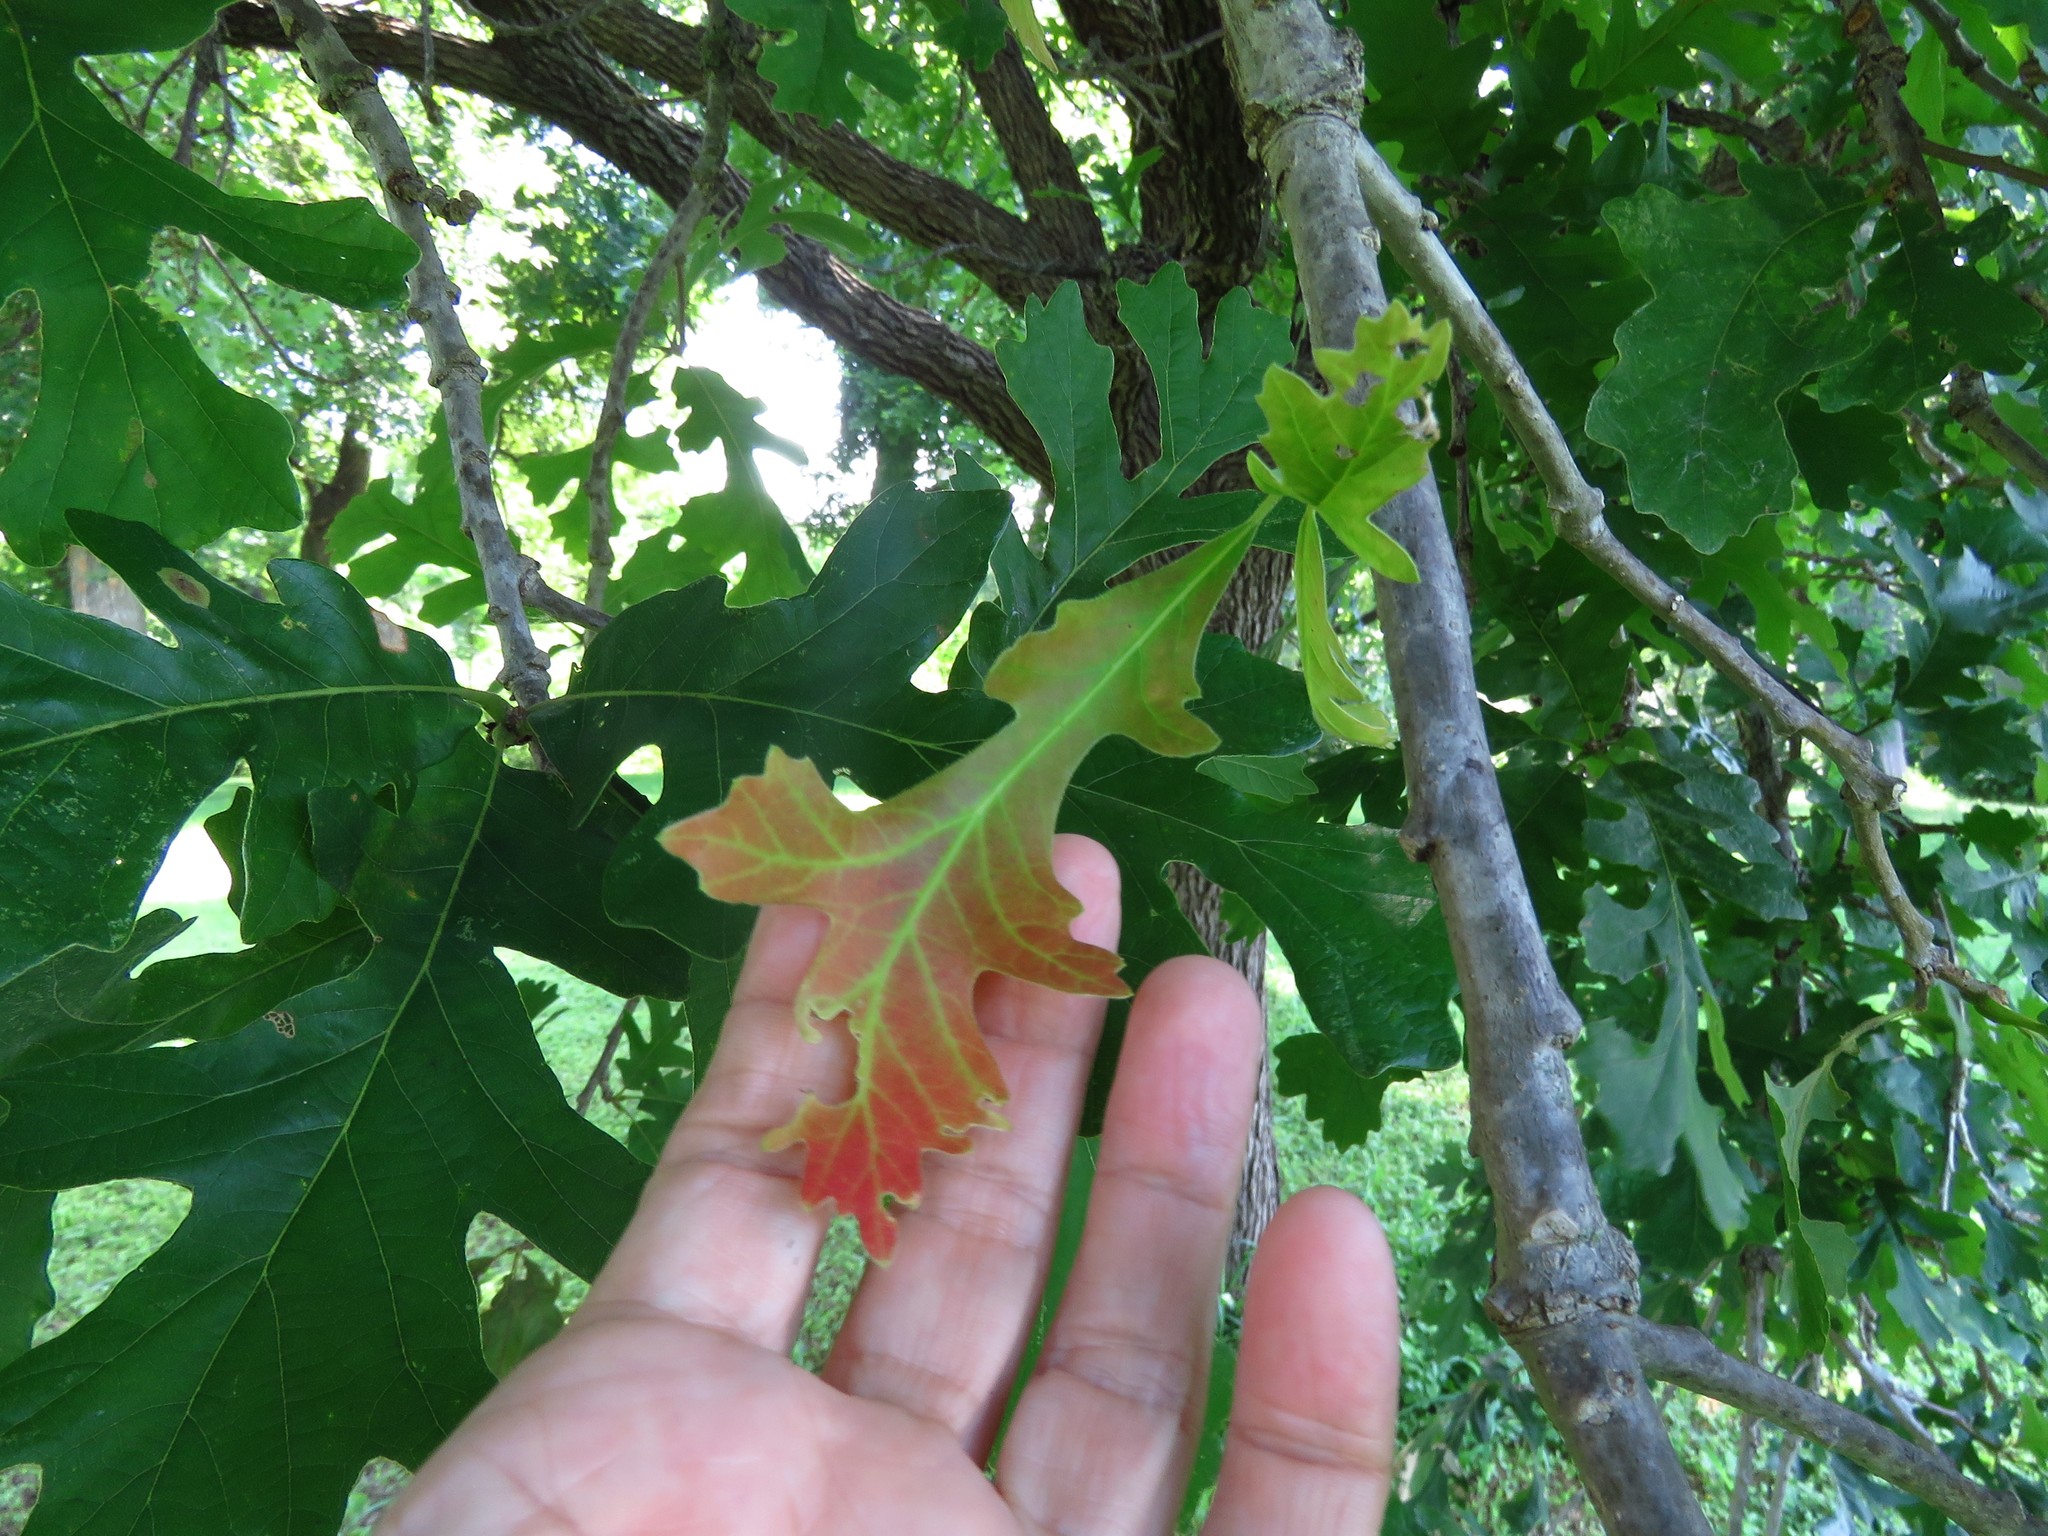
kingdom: Plantae
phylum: Tracheophyta
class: Magnoliopsida
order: Fagales
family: Fagaceae
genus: Quercus
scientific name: Quercus macrocarpa
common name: Bur oak
